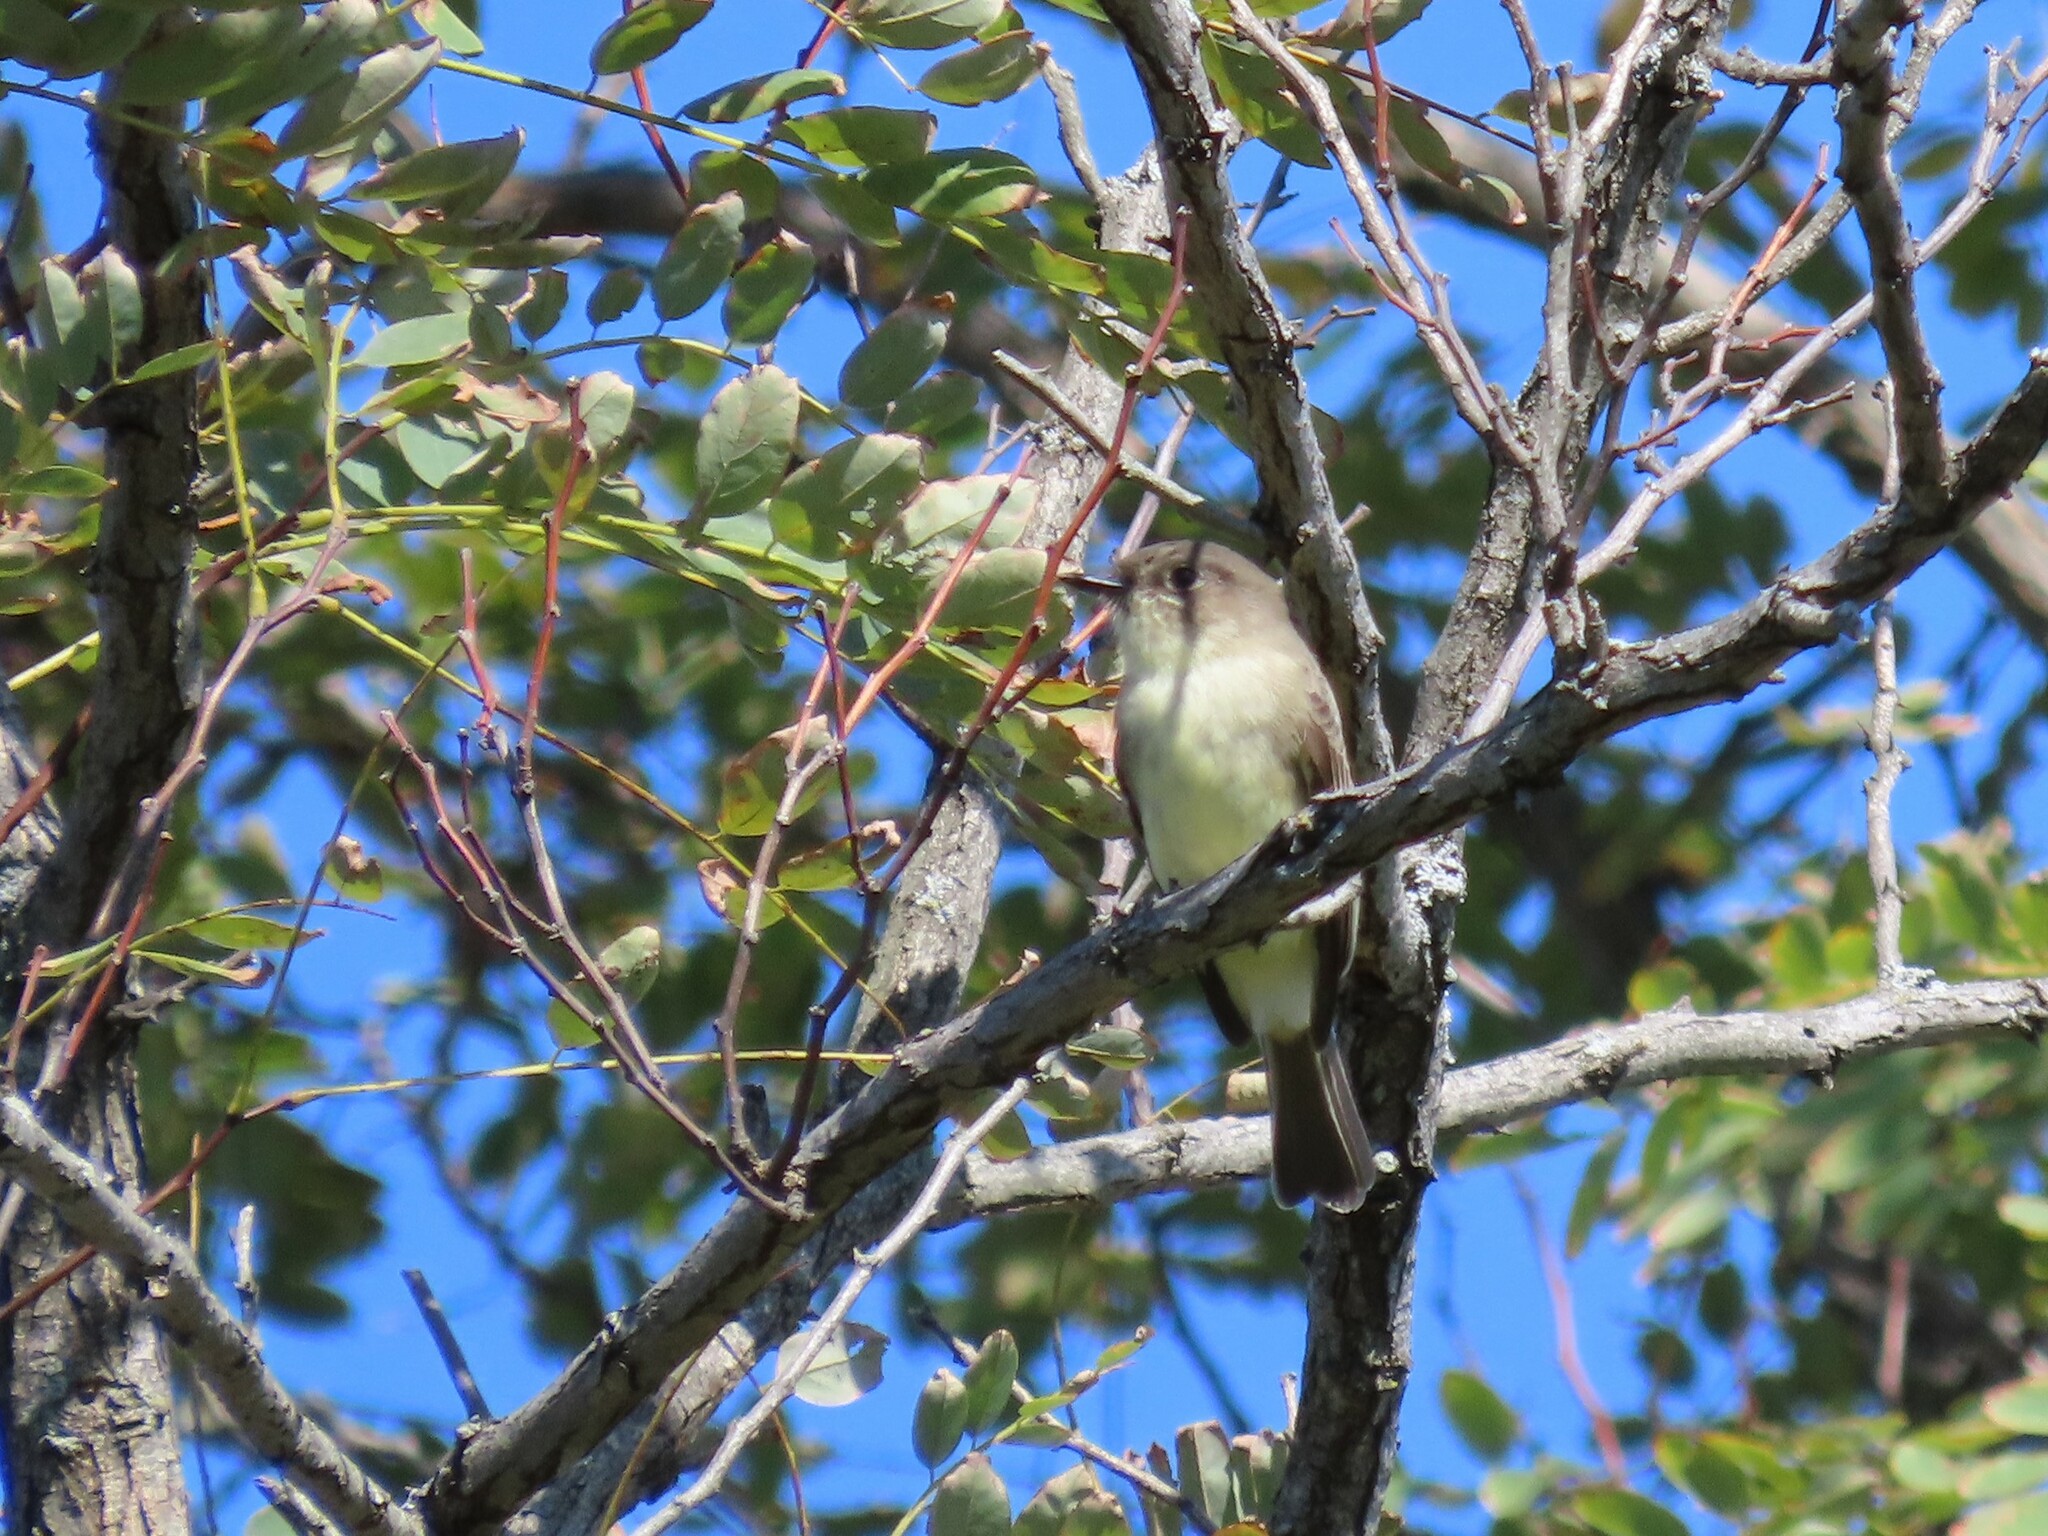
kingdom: Animalia
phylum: Chordata
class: Aves
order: Passeriformes
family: Tyrannidae
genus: Sayornis
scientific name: Sayornis phoebe
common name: Eastern phoebe
